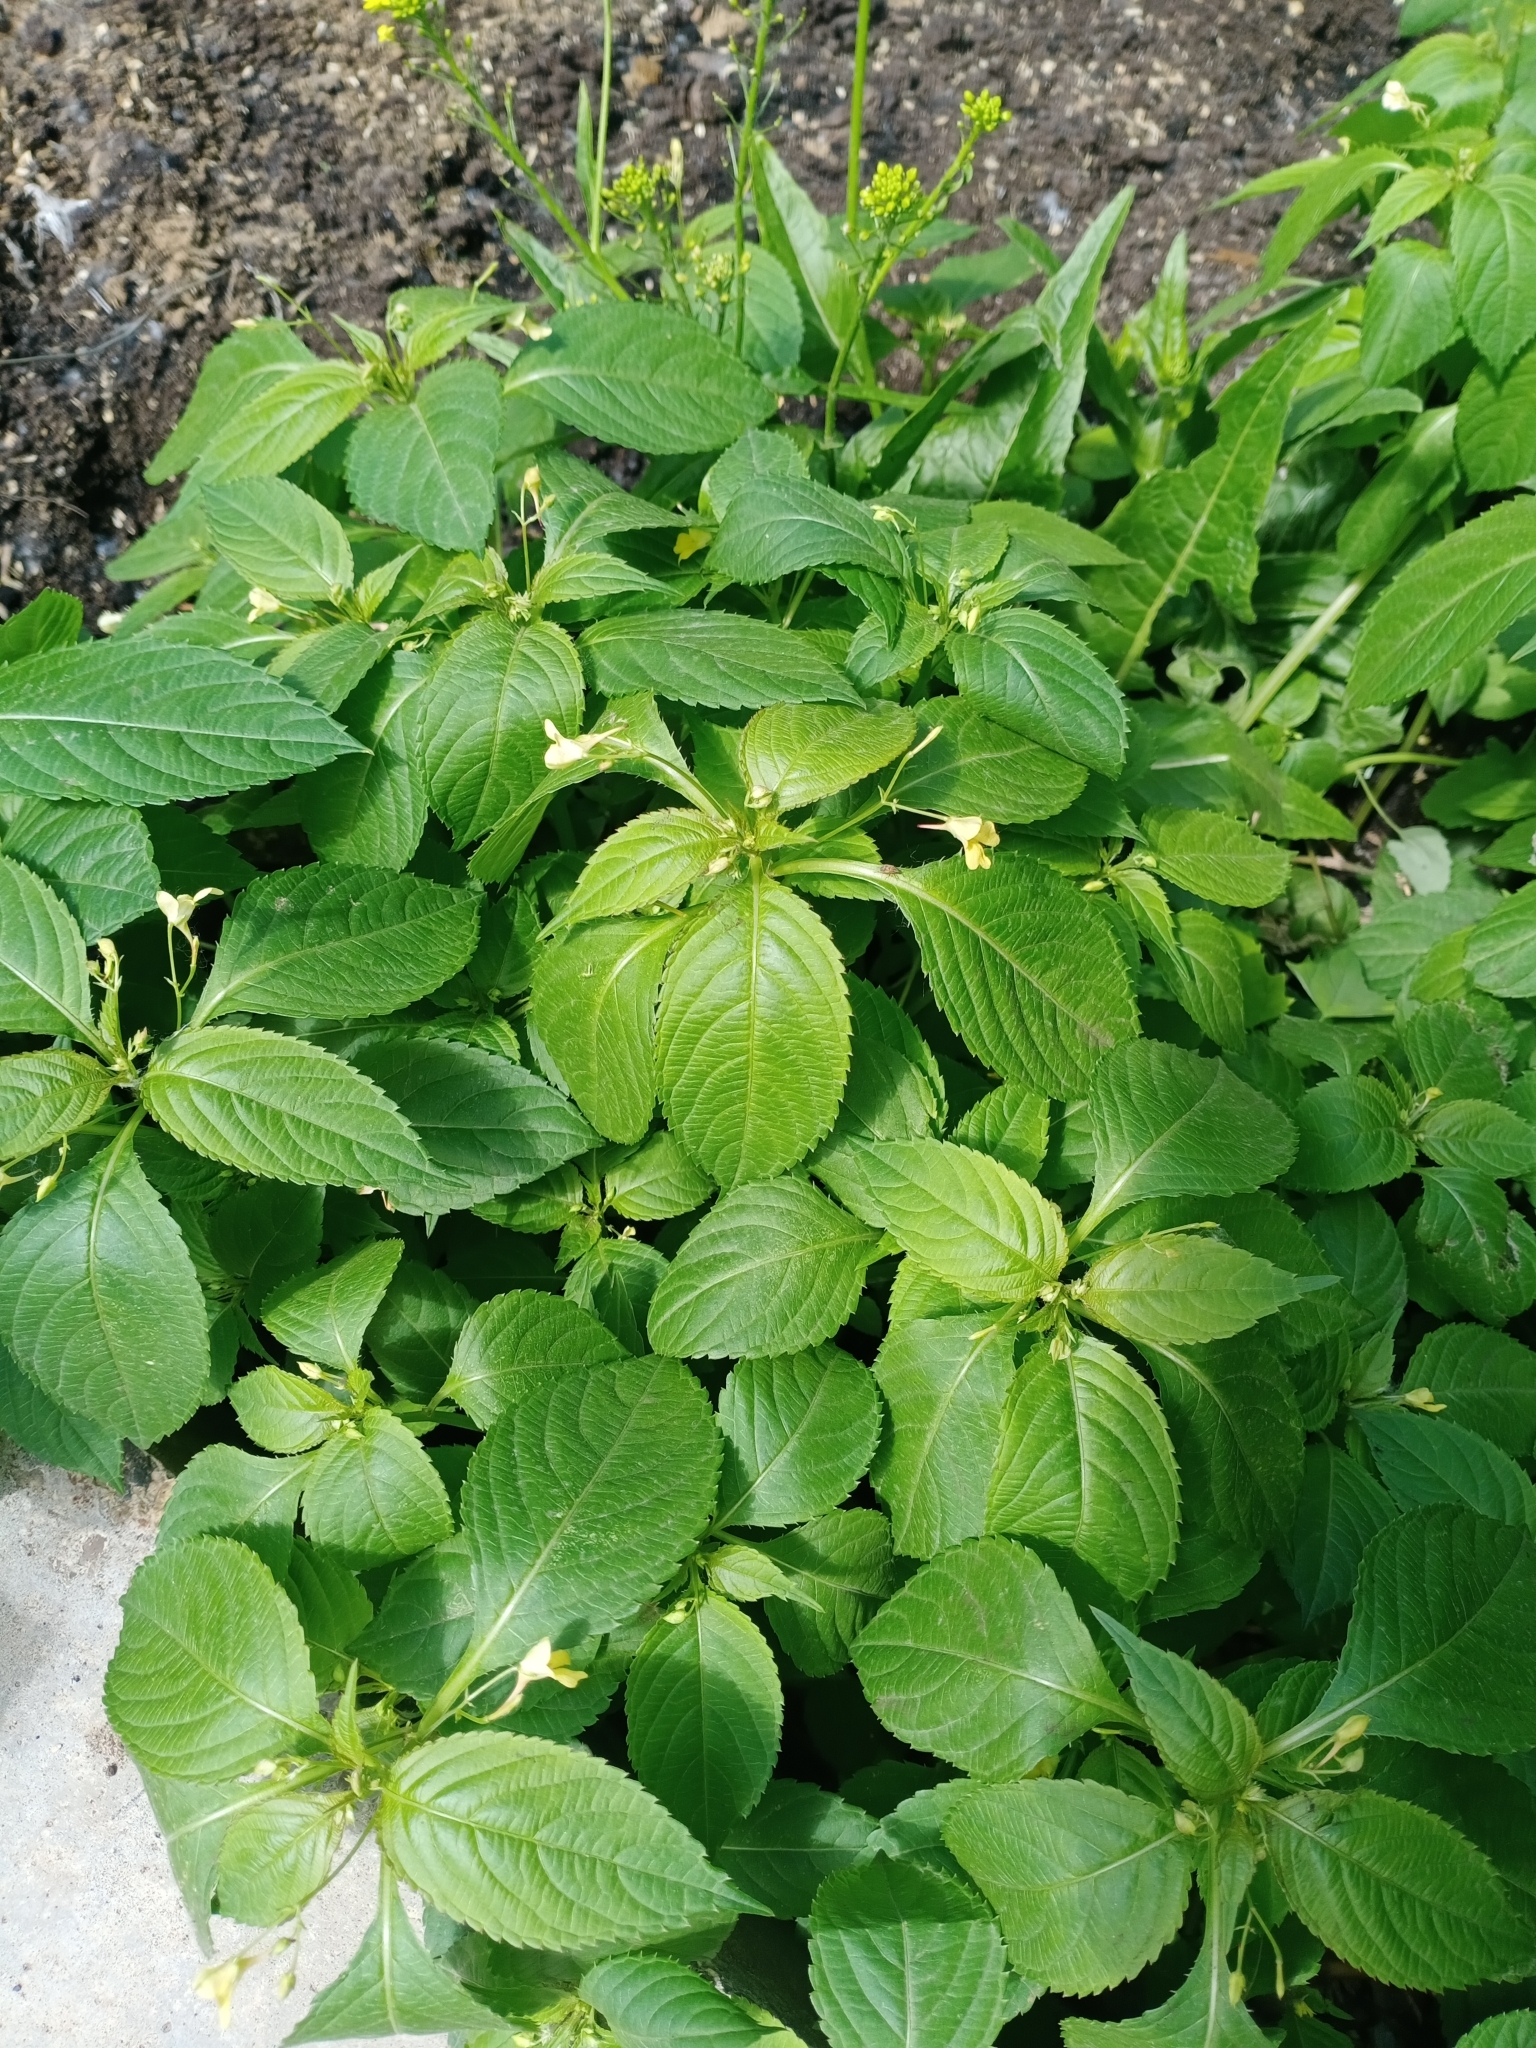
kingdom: Plantae
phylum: Tracheophyta
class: Magnoliopsida
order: Ericales
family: Balsaminaceae
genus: Impatiens
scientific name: Impatiens parviflora
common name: Small balsam
